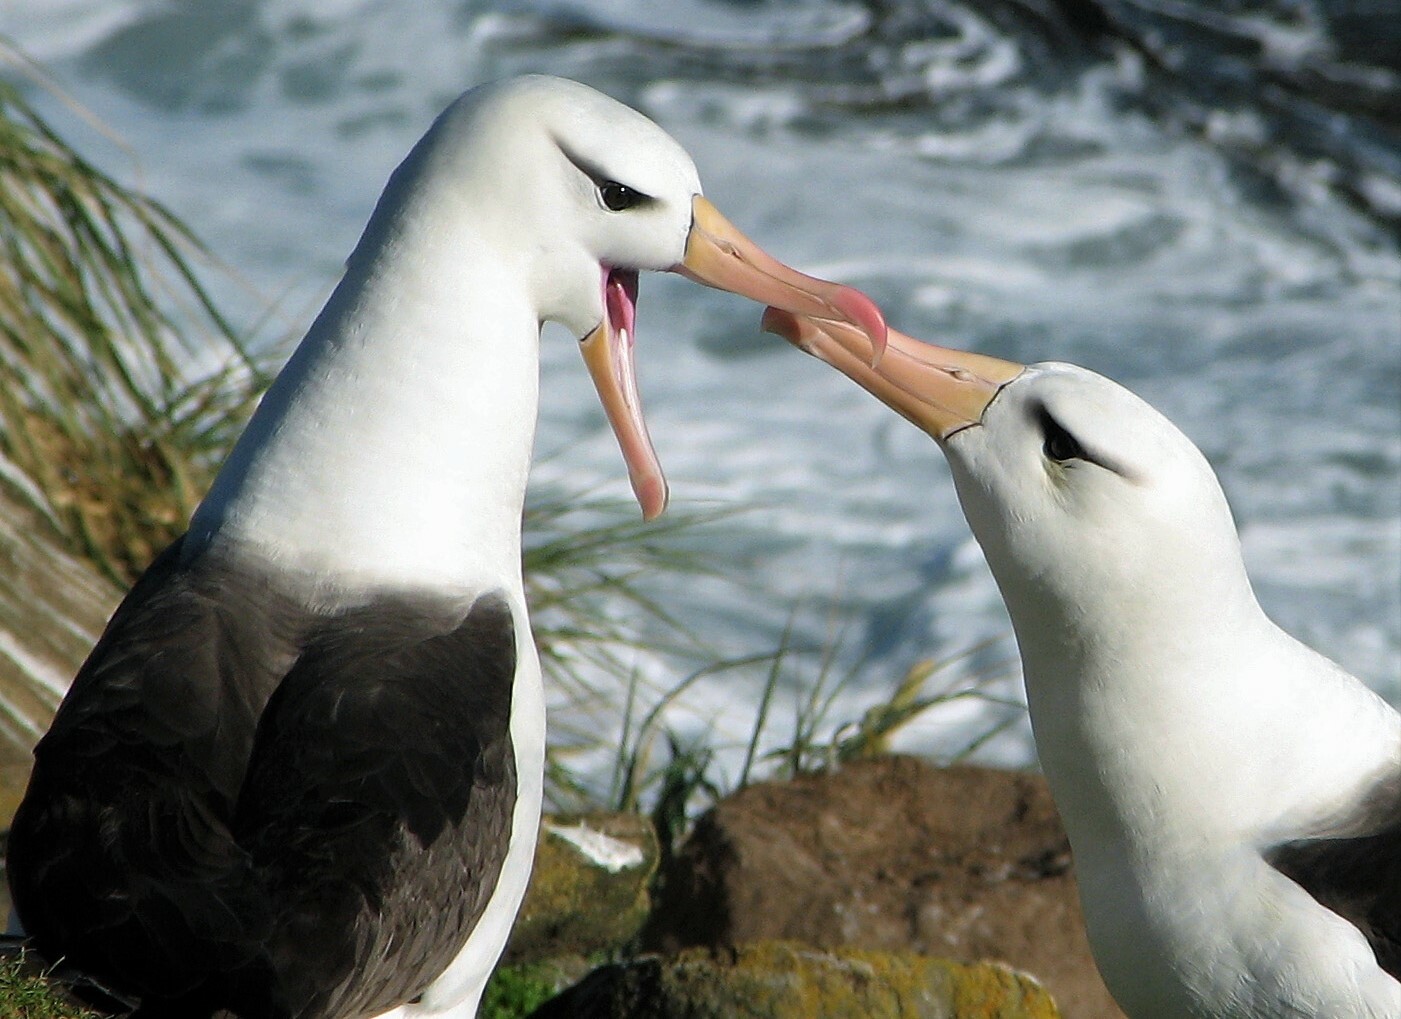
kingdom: Animalia
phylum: Chordata
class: Aves
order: Procellariiformes
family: Diomedeidae
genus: Thalassarche
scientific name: Thalassarche melanophris
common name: Black-browed albatross
